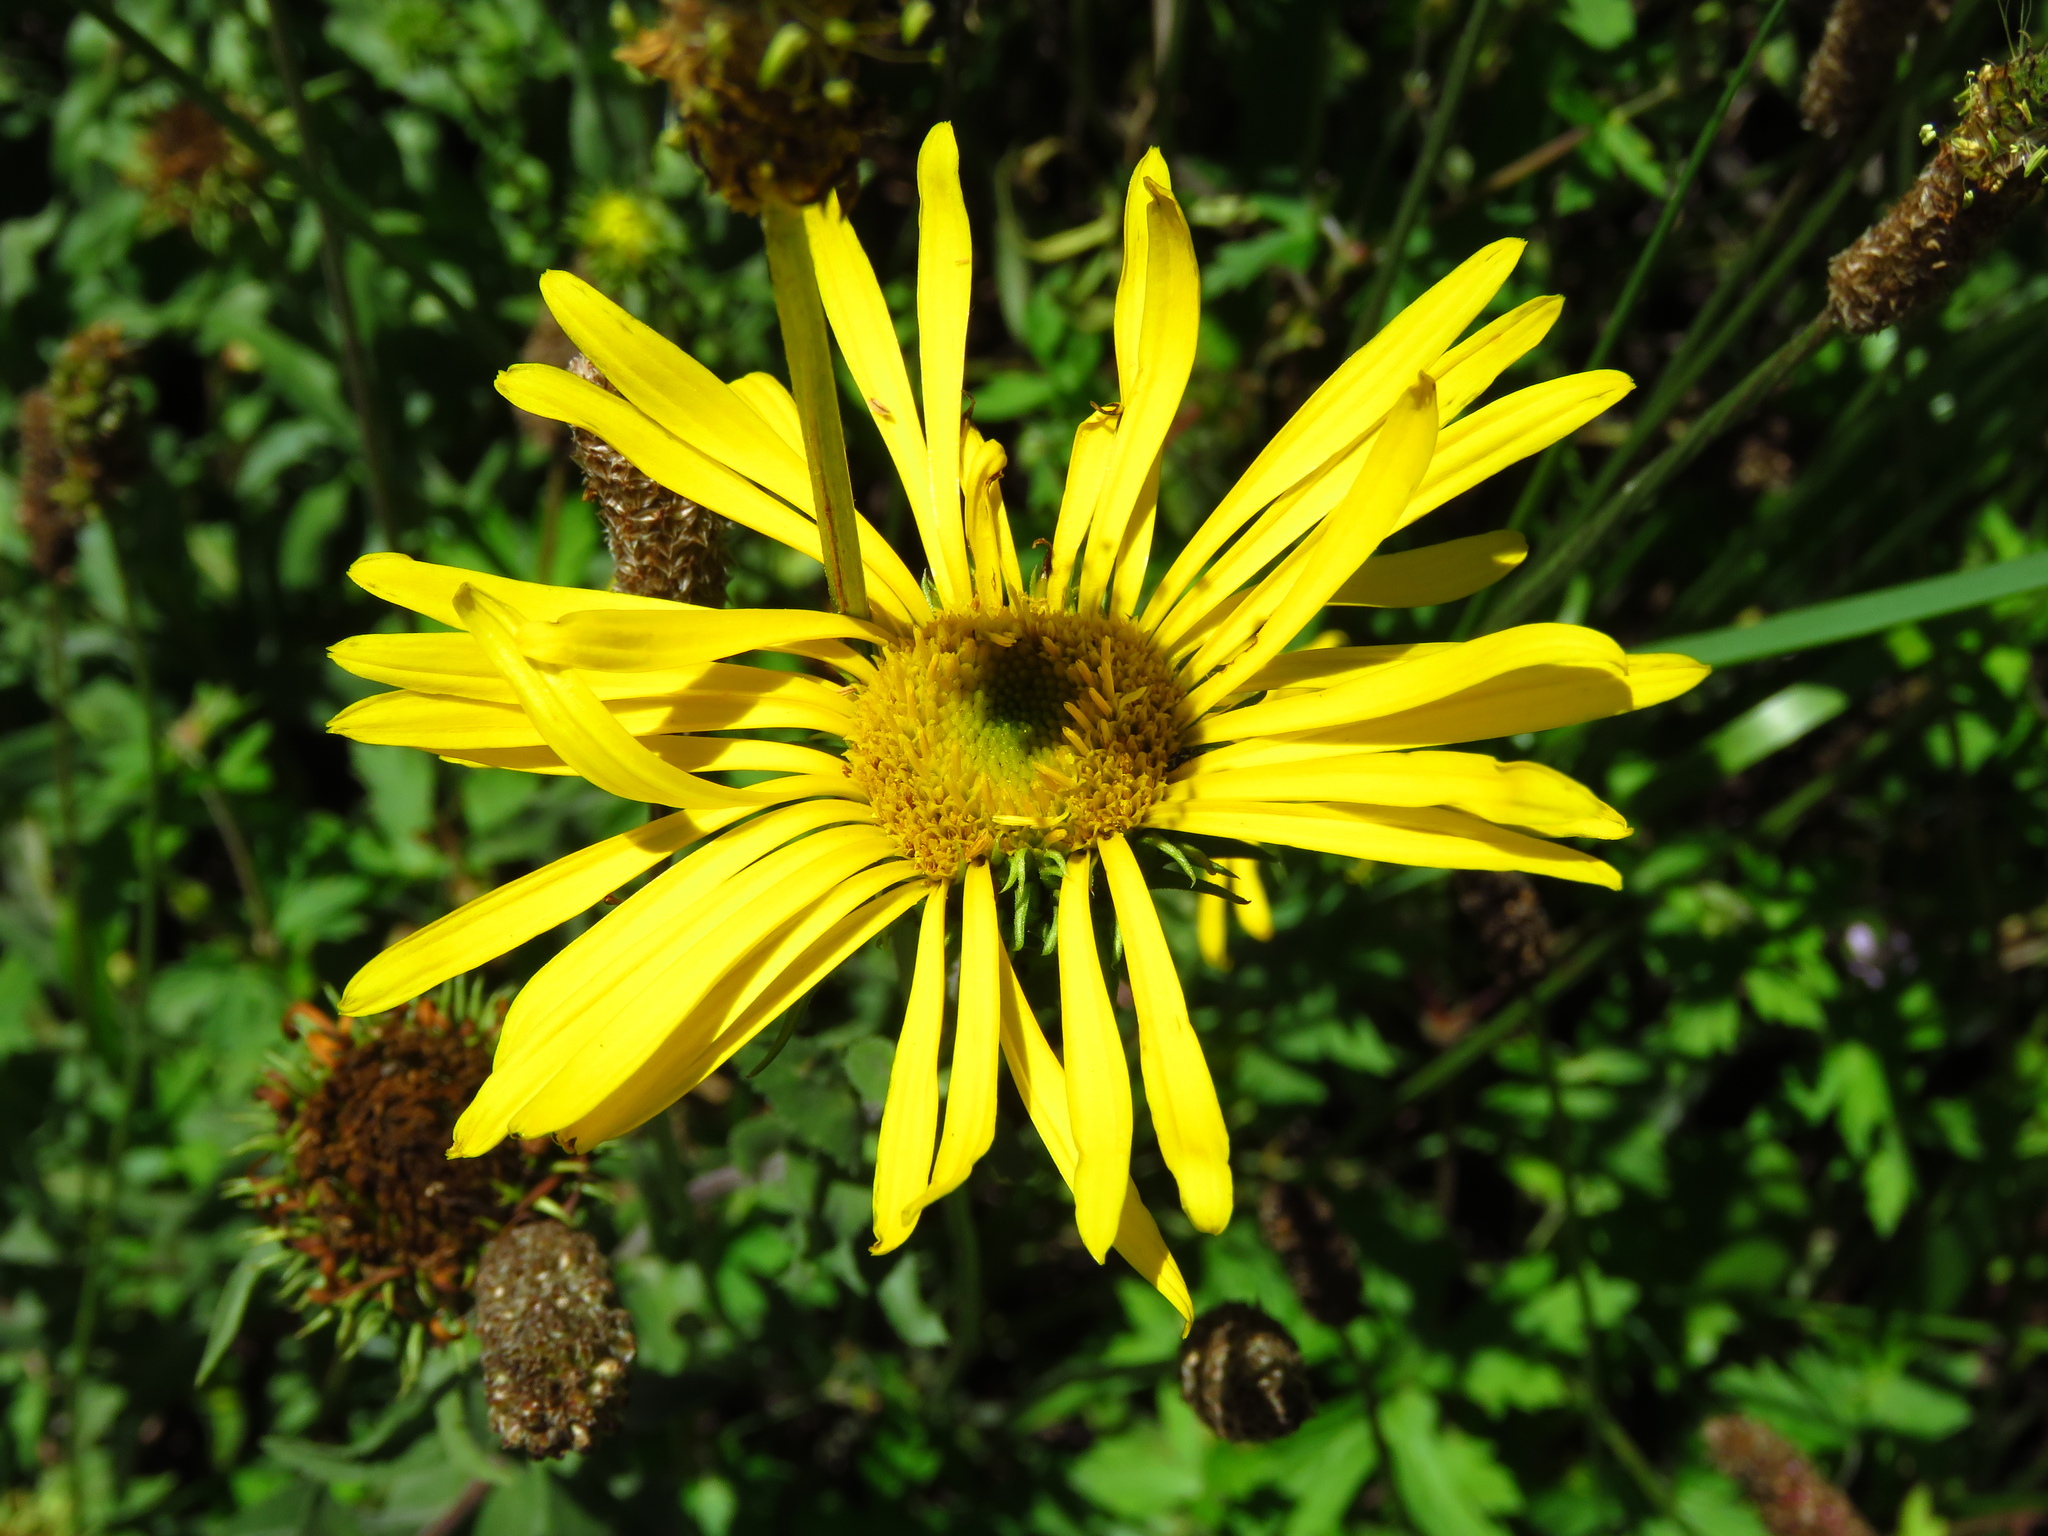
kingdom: Plantae
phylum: Tracheophyta
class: Magnoliopsida
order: Asterales
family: Asteraceae
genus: Grindelia
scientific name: Grindelia greenmanii
